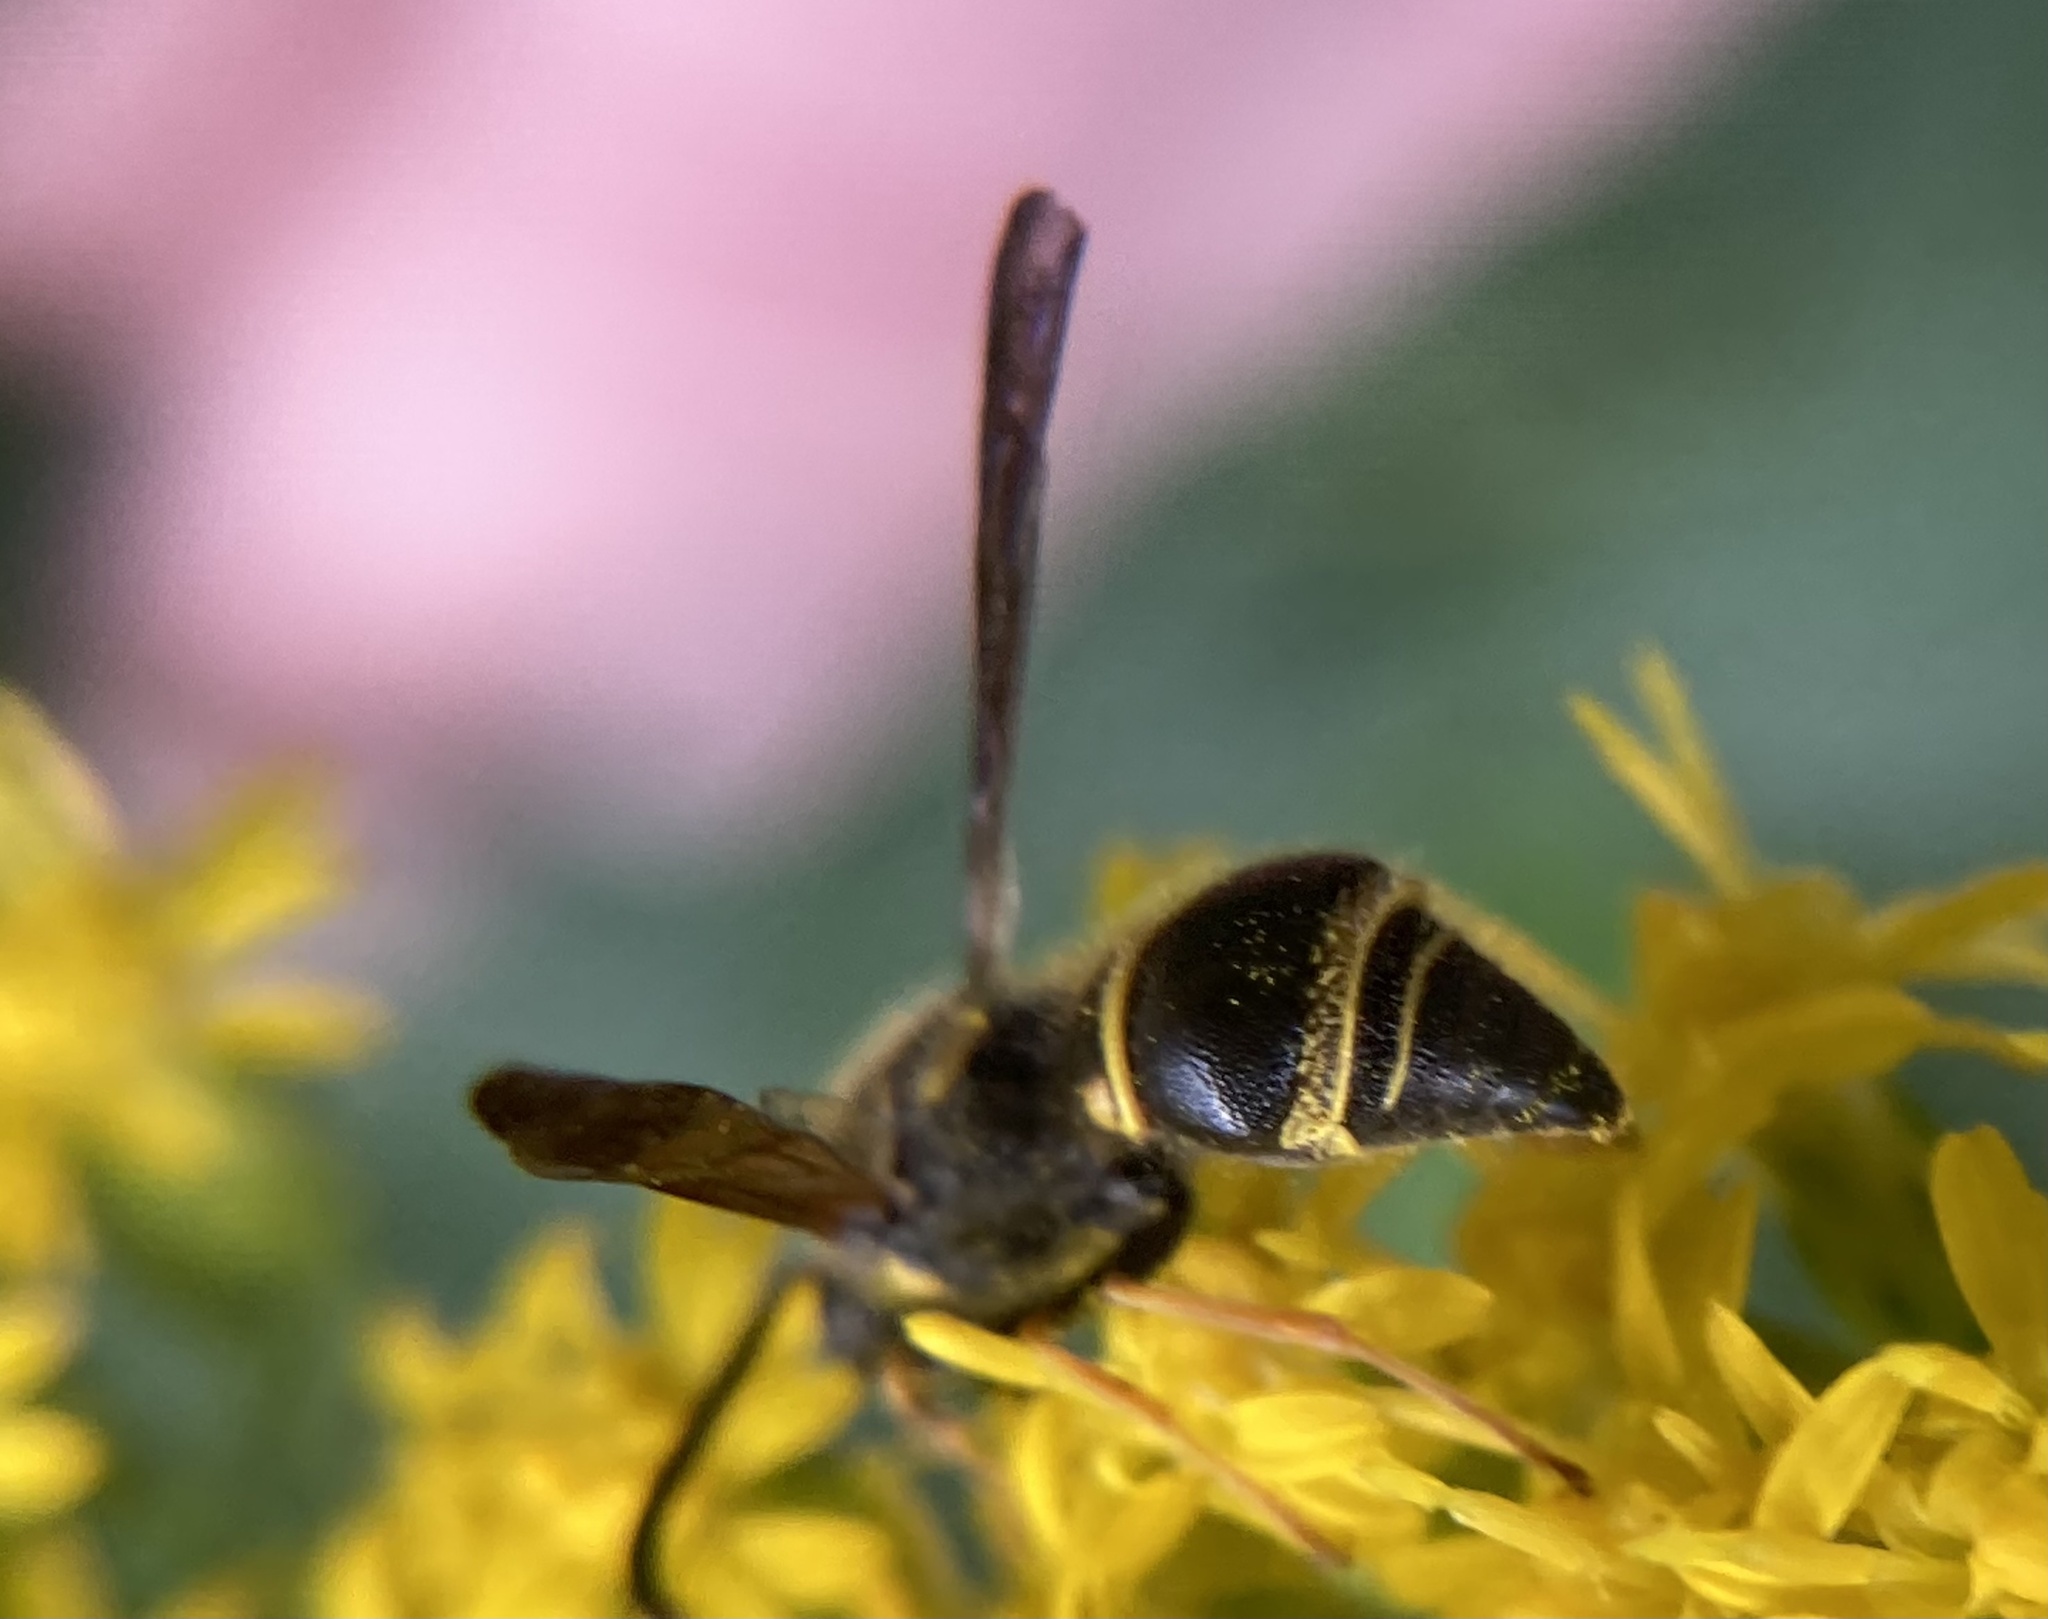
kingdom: Animalia
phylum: Arthropoda
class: Insecta
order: Hymenoptera
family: Vespidae
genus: Ancistrocerus
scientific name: Ancistrocerus campestris
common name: Smiling mason wasp
